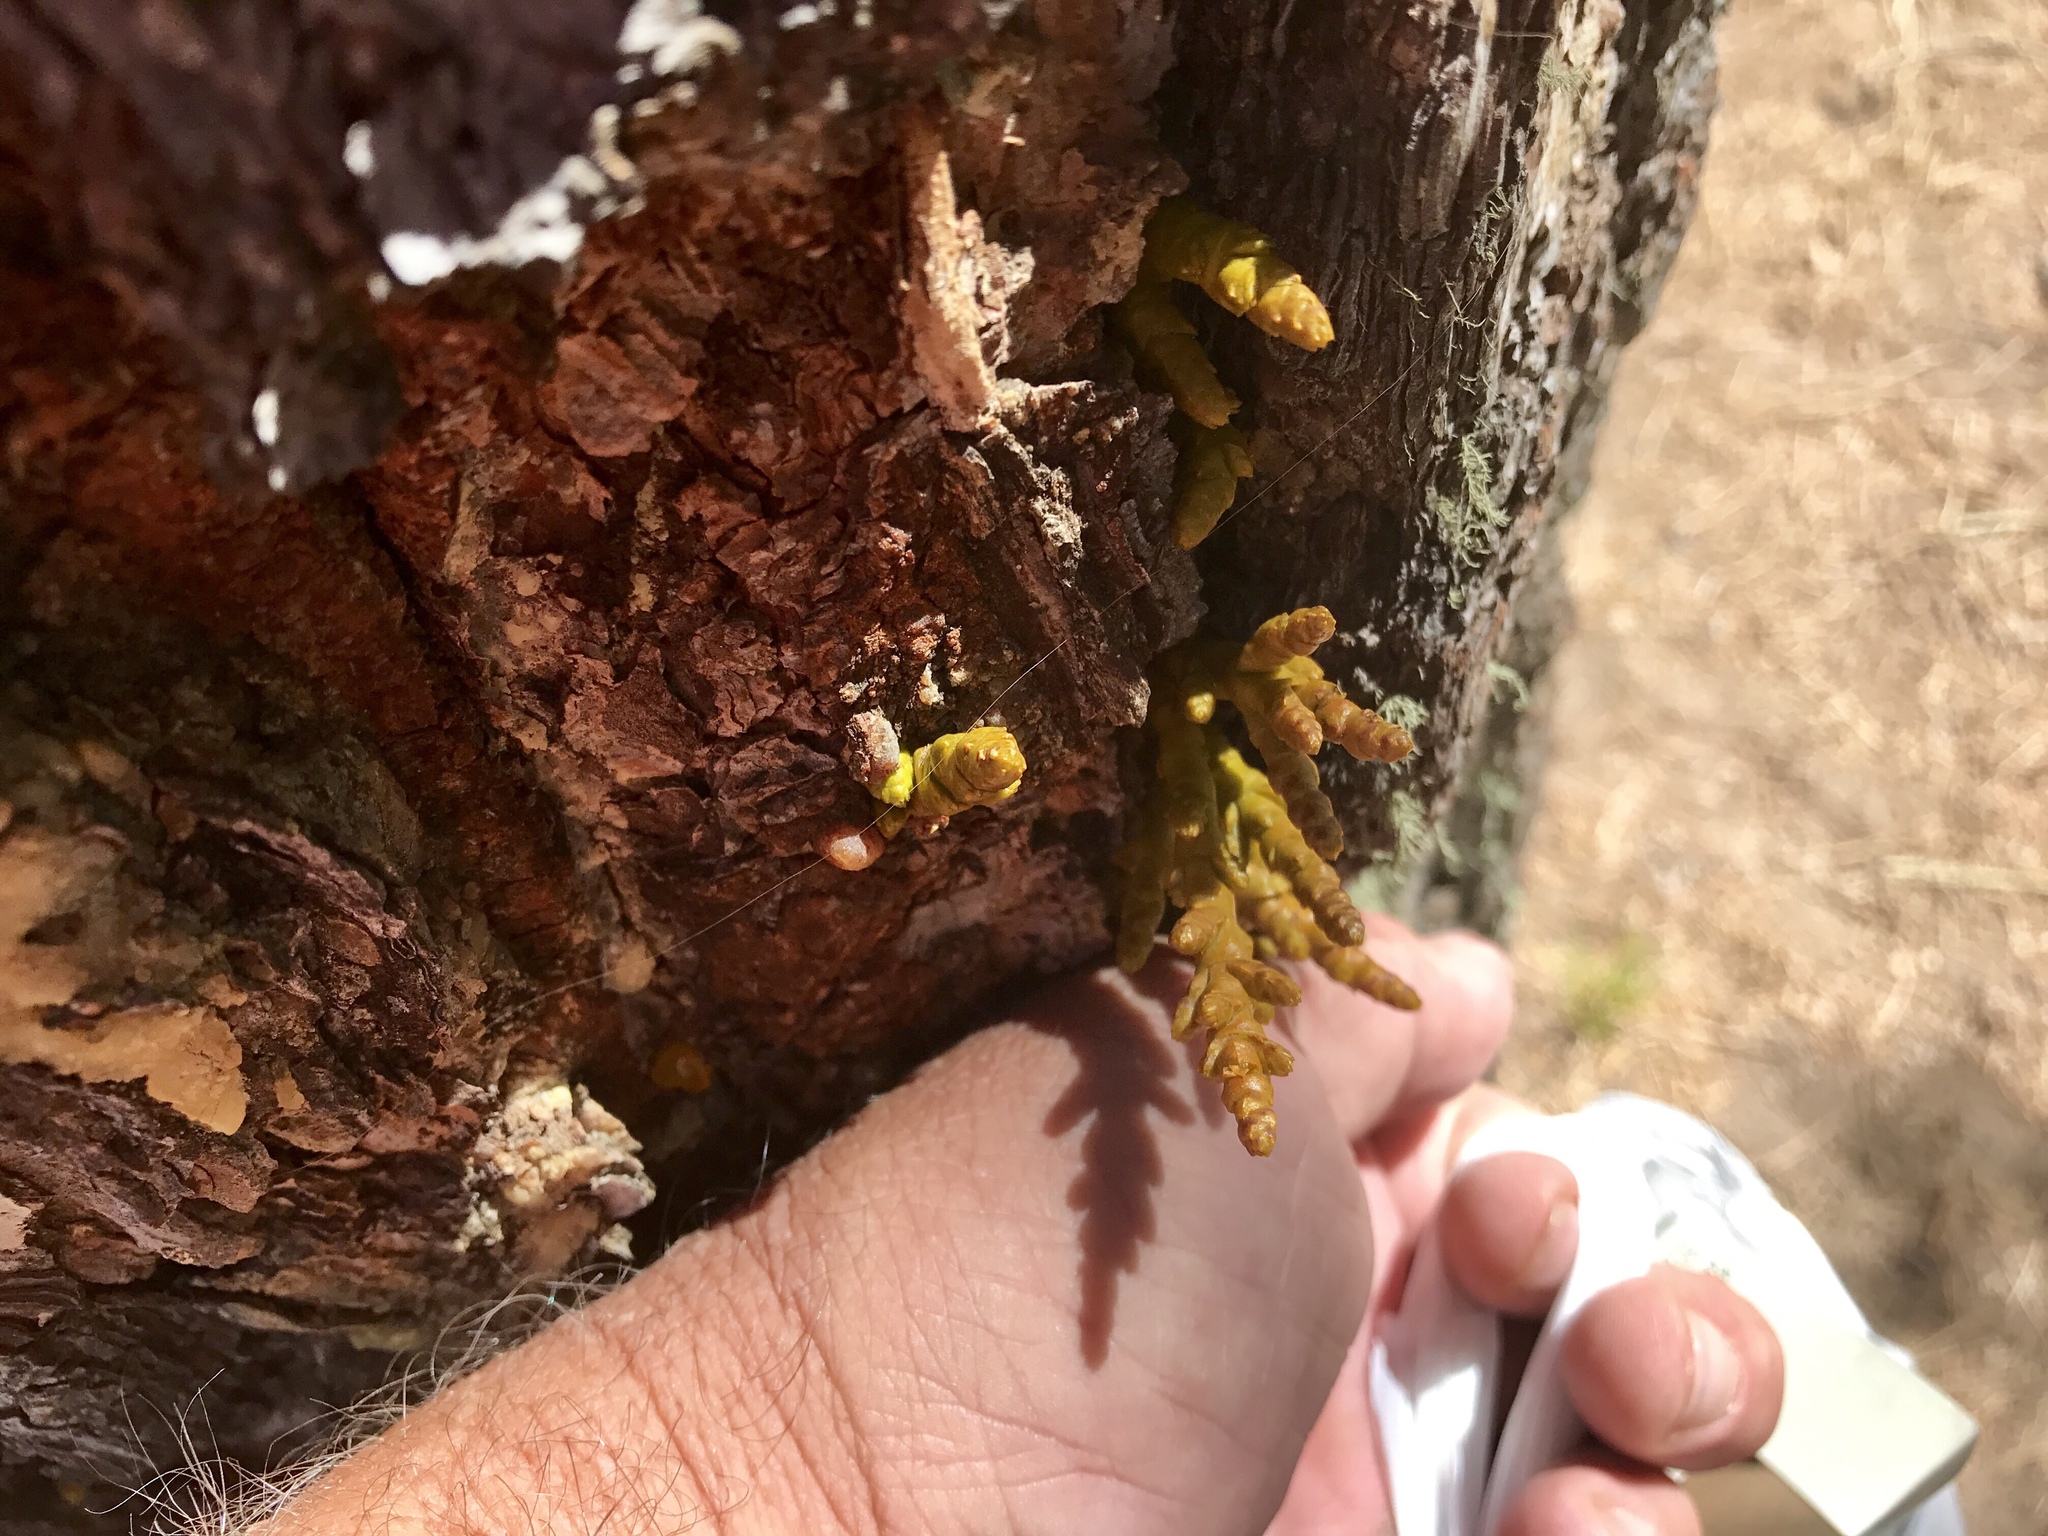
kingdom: Plantae
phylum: Tracheophyta
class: Magnoliopsida
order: Santalales
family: Viscaceae
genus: Arceuthobium
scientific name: Arceuthobium vaginatum
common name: Southwestern dwarf-mistletoe
